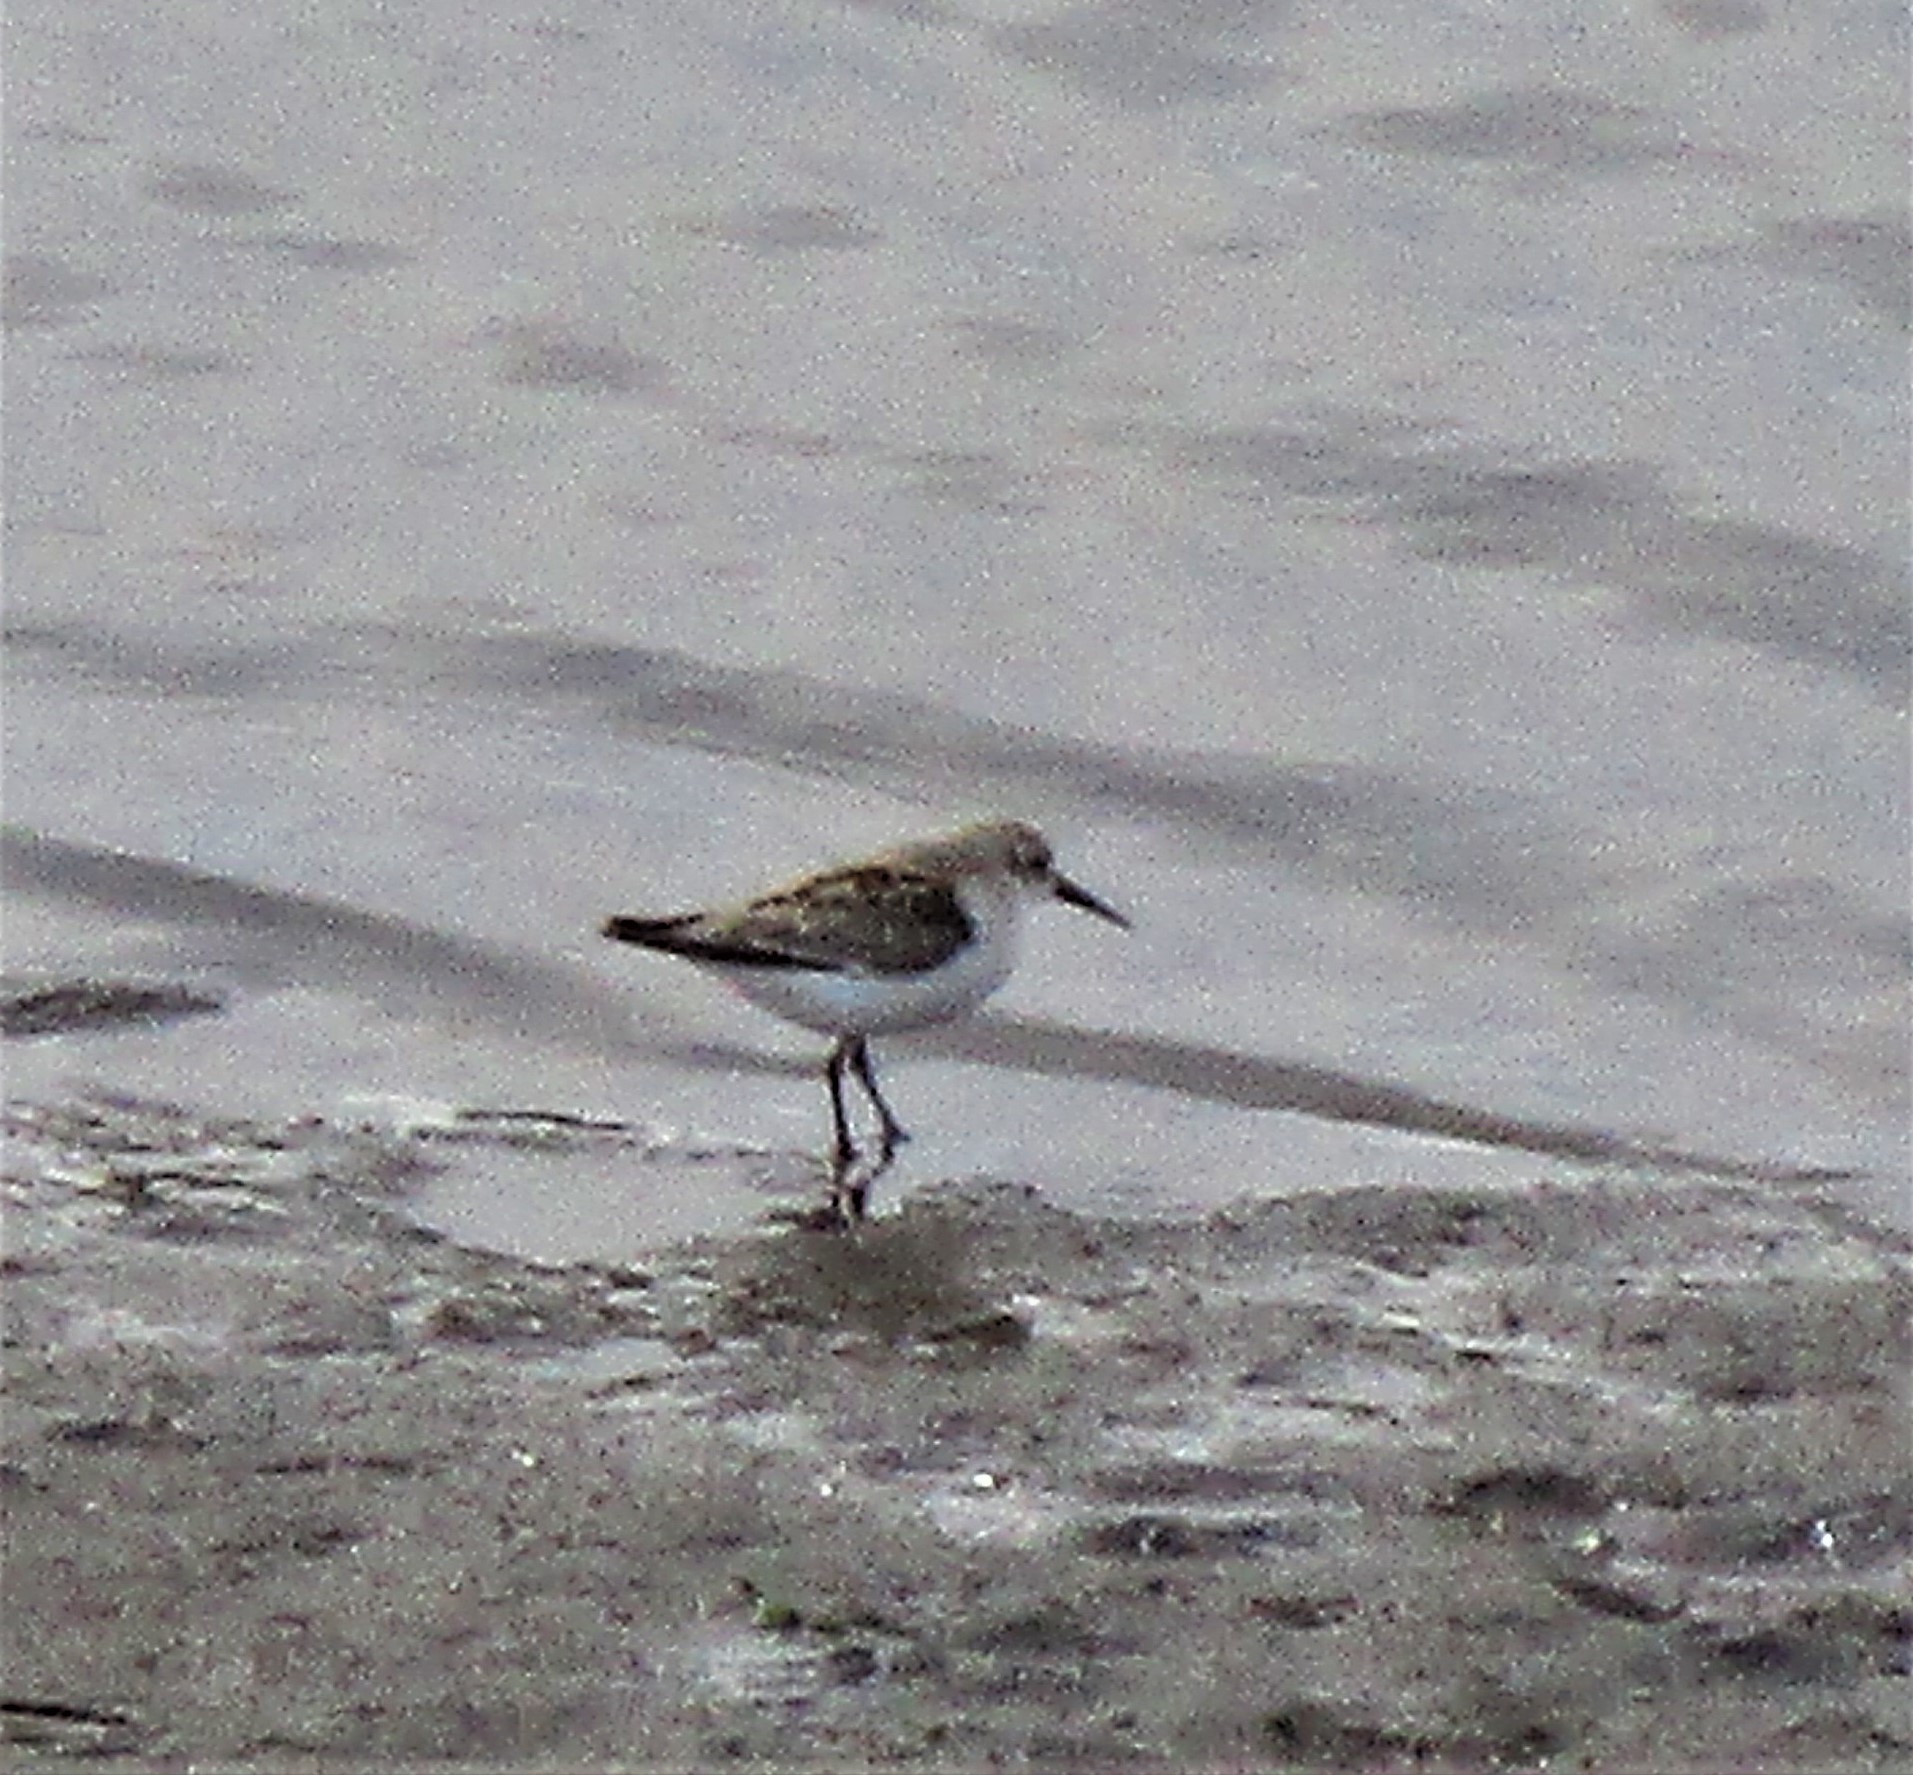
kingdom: Animalia
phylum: Chordata
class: Aves
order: Charadriiformes
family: Scolopacidae
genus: Calidris
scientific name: Calidris mauri
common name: Western sandpiper
